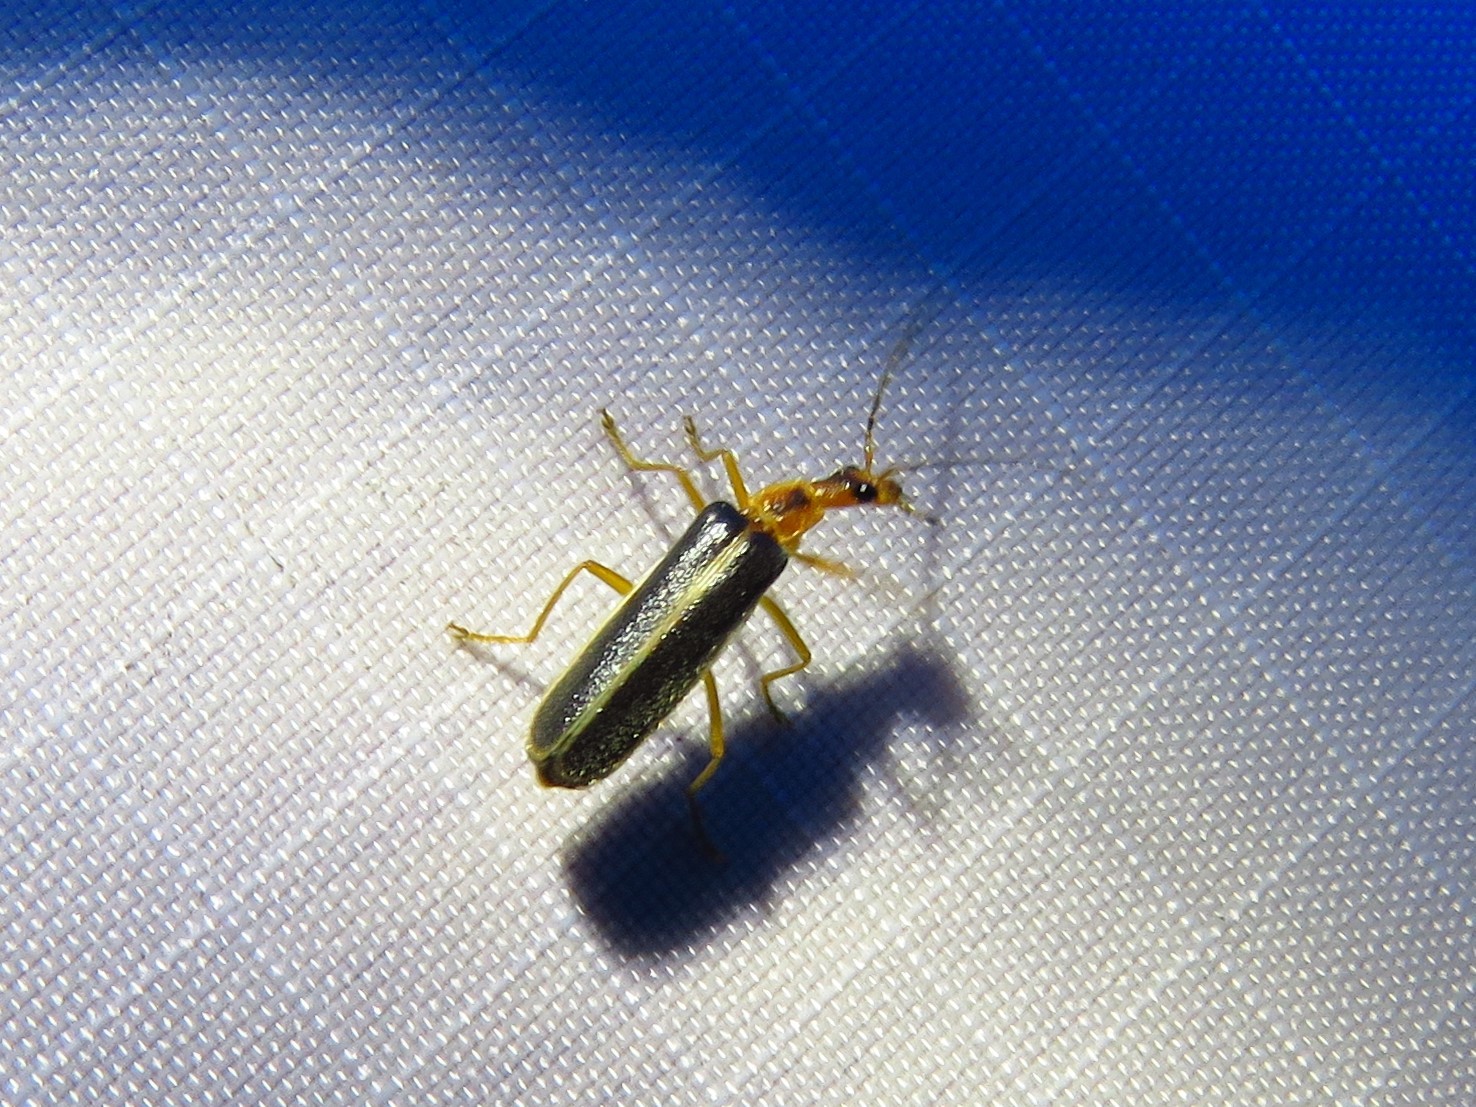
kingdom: Animalia
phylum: Arthropoda
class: Insecta
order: Coleoptera
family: Cantharidae
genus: Podabrus
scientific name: Podabrus dreisbachi
